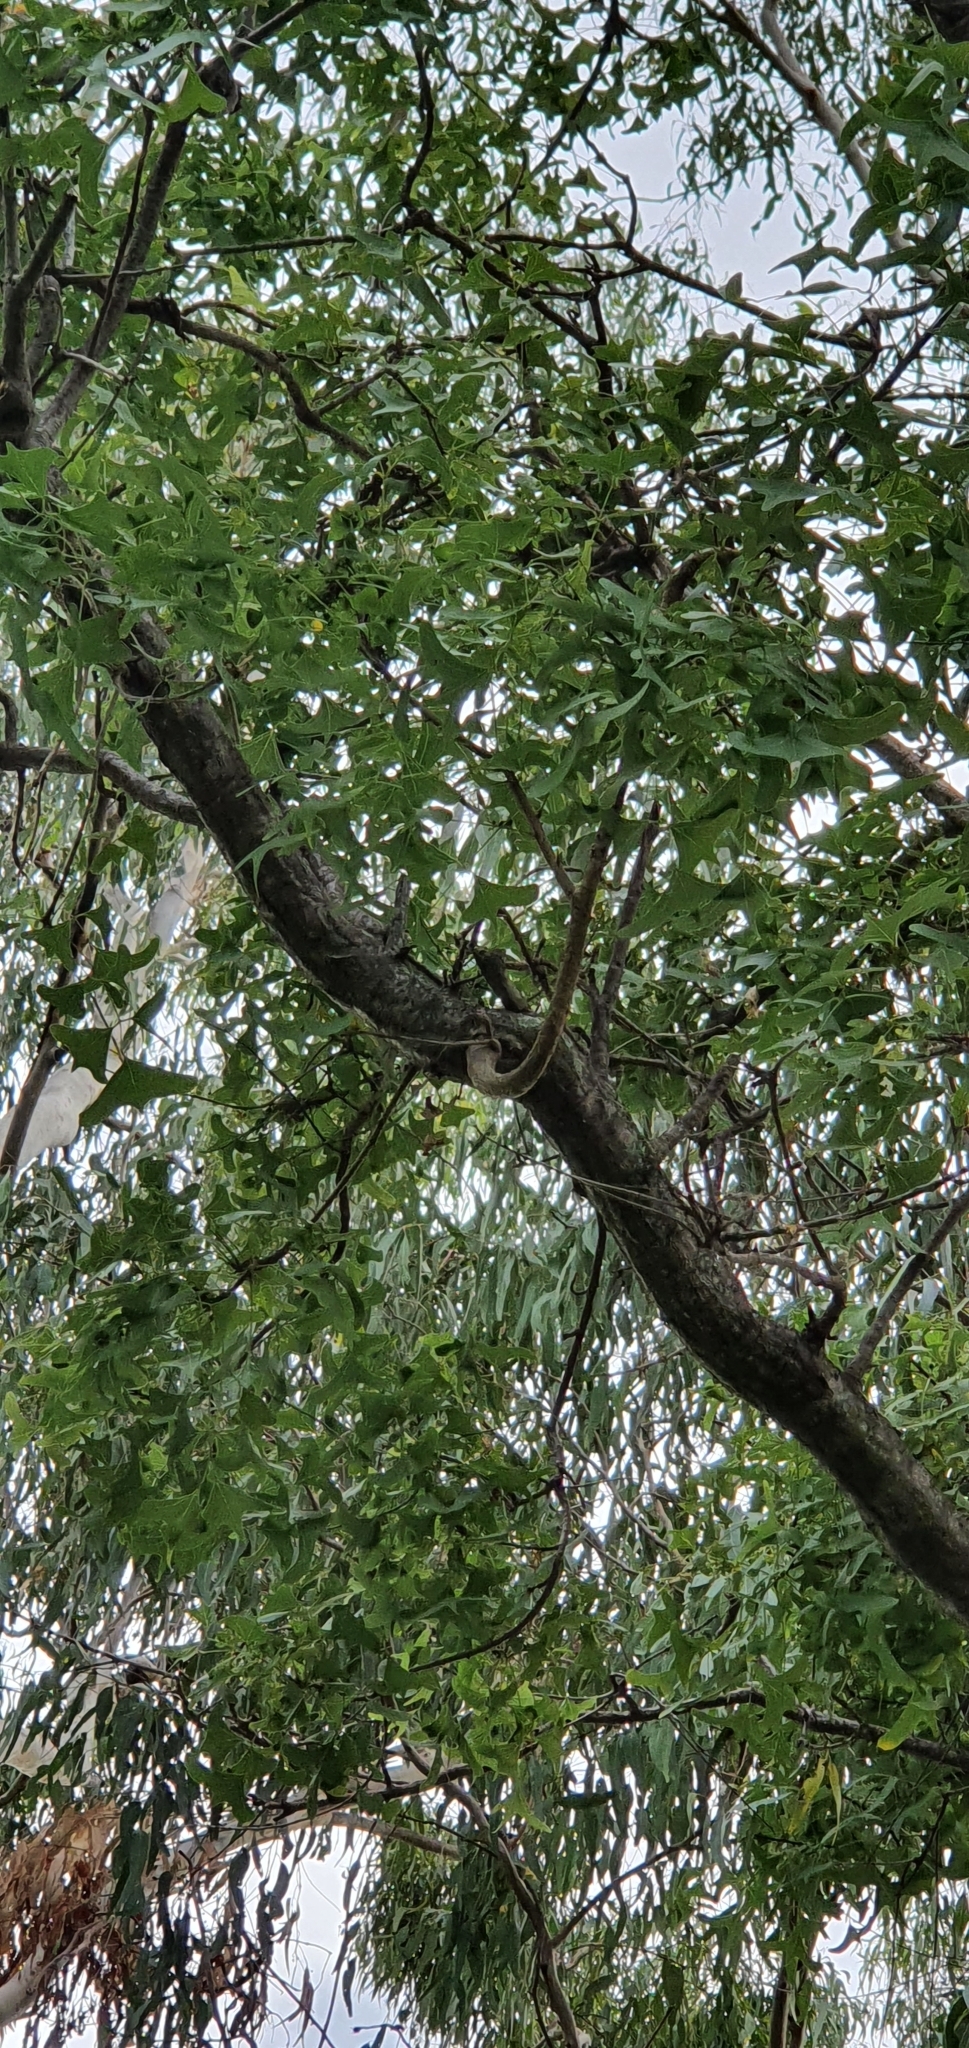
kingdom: Plantae
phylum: Tracheophyta
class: Magnoliopsida
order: Fabales
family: Fabaceae
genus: Erythrina
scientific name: Erythrina vespertilio
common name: Bat-wing coral tree
